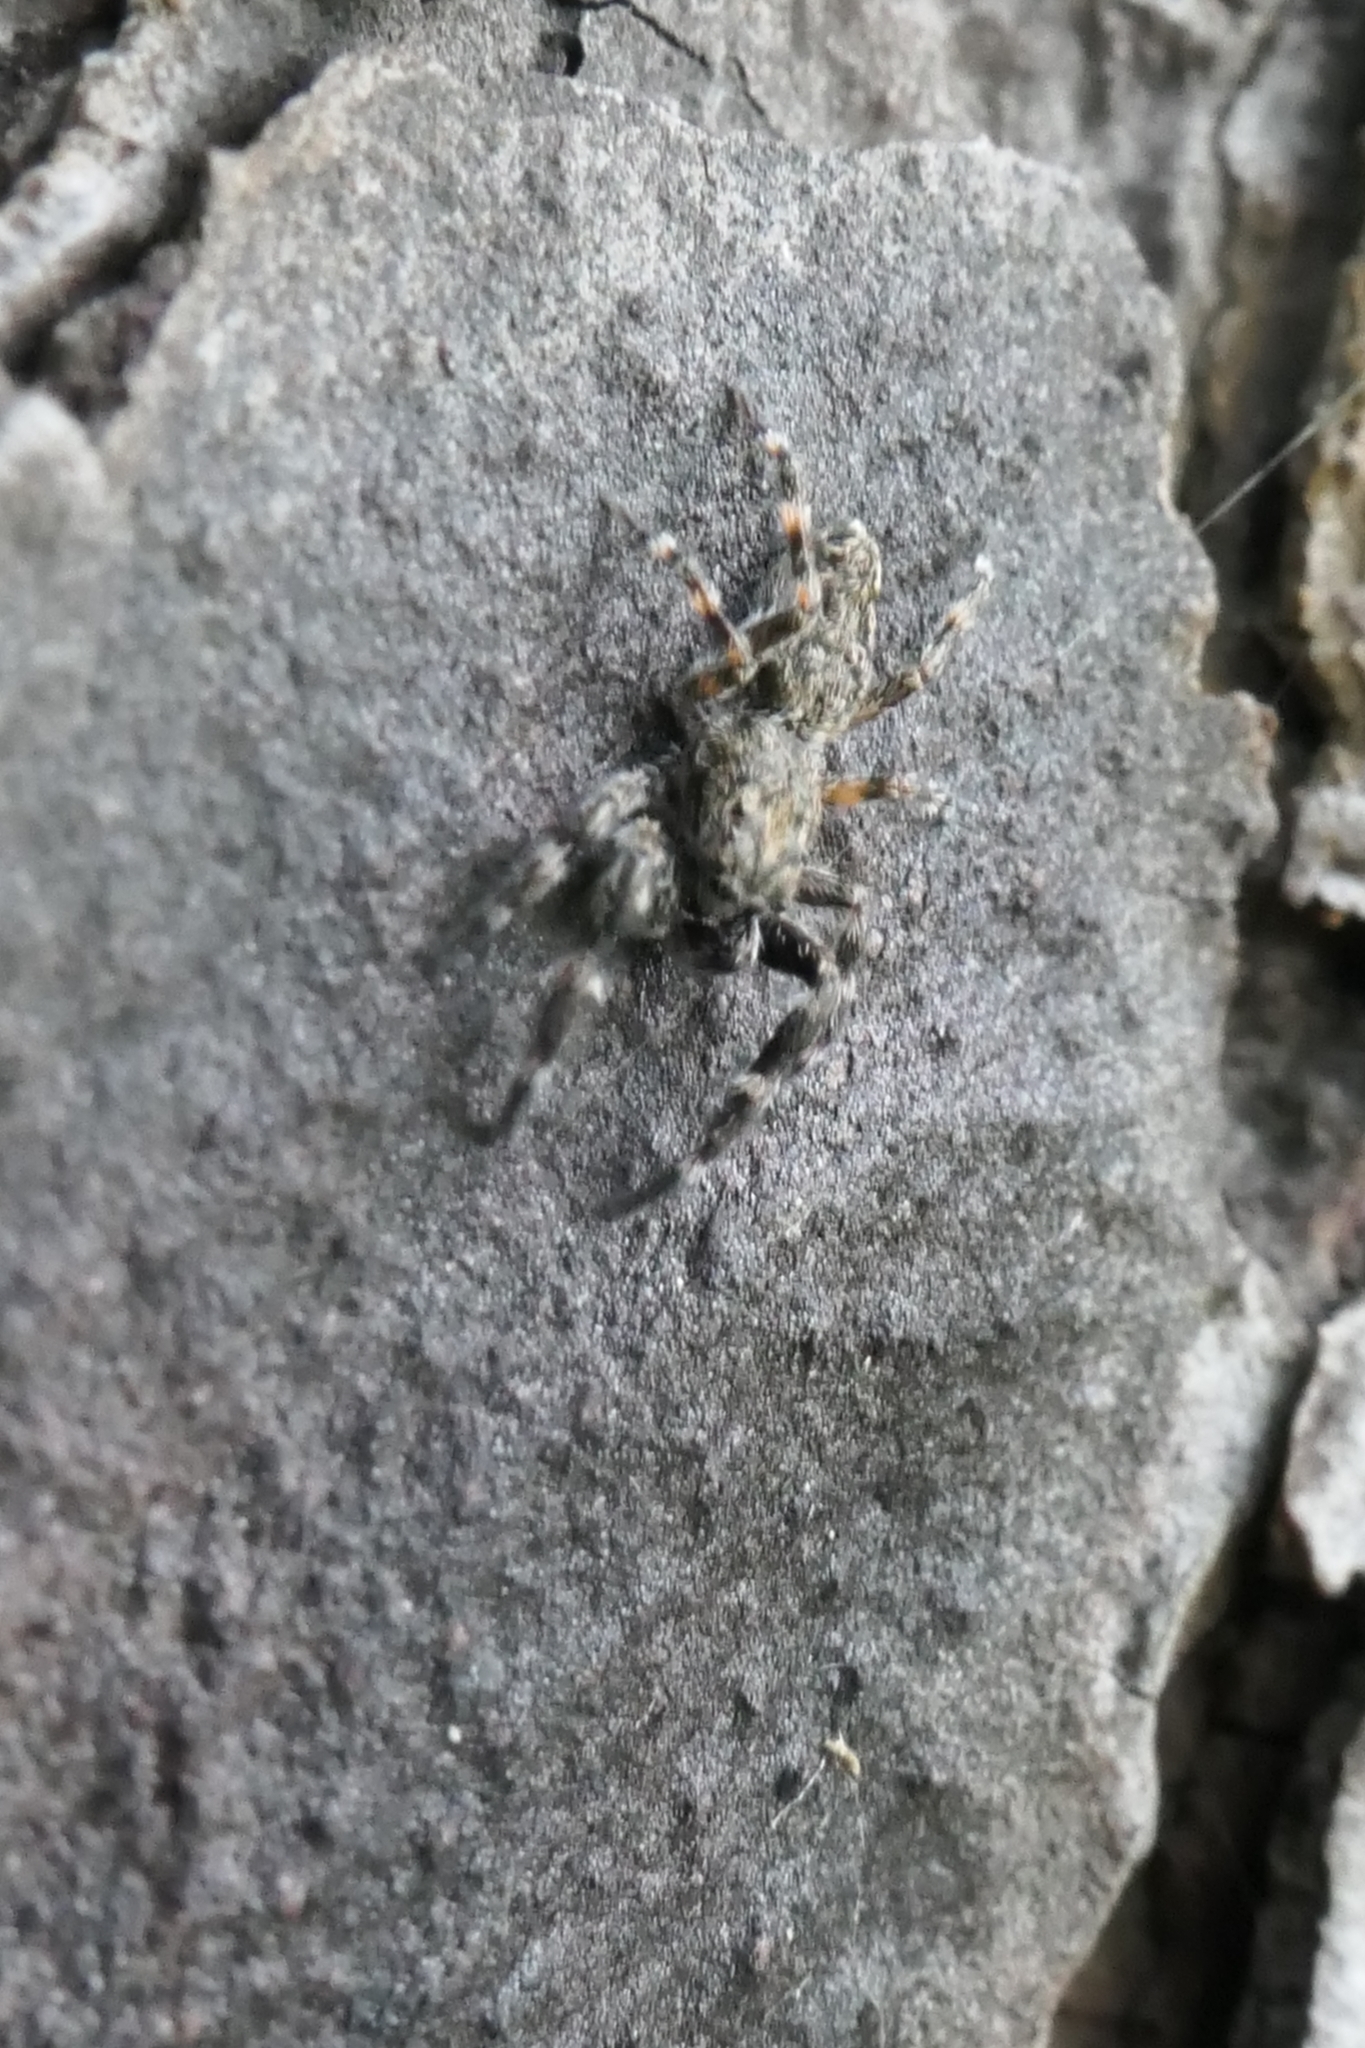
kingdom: Animalia
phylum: Arthropoda
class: Arachnida
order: Araneae
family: Salticidae
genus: Adoxotoma
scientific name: Adoxotoma forsteri
